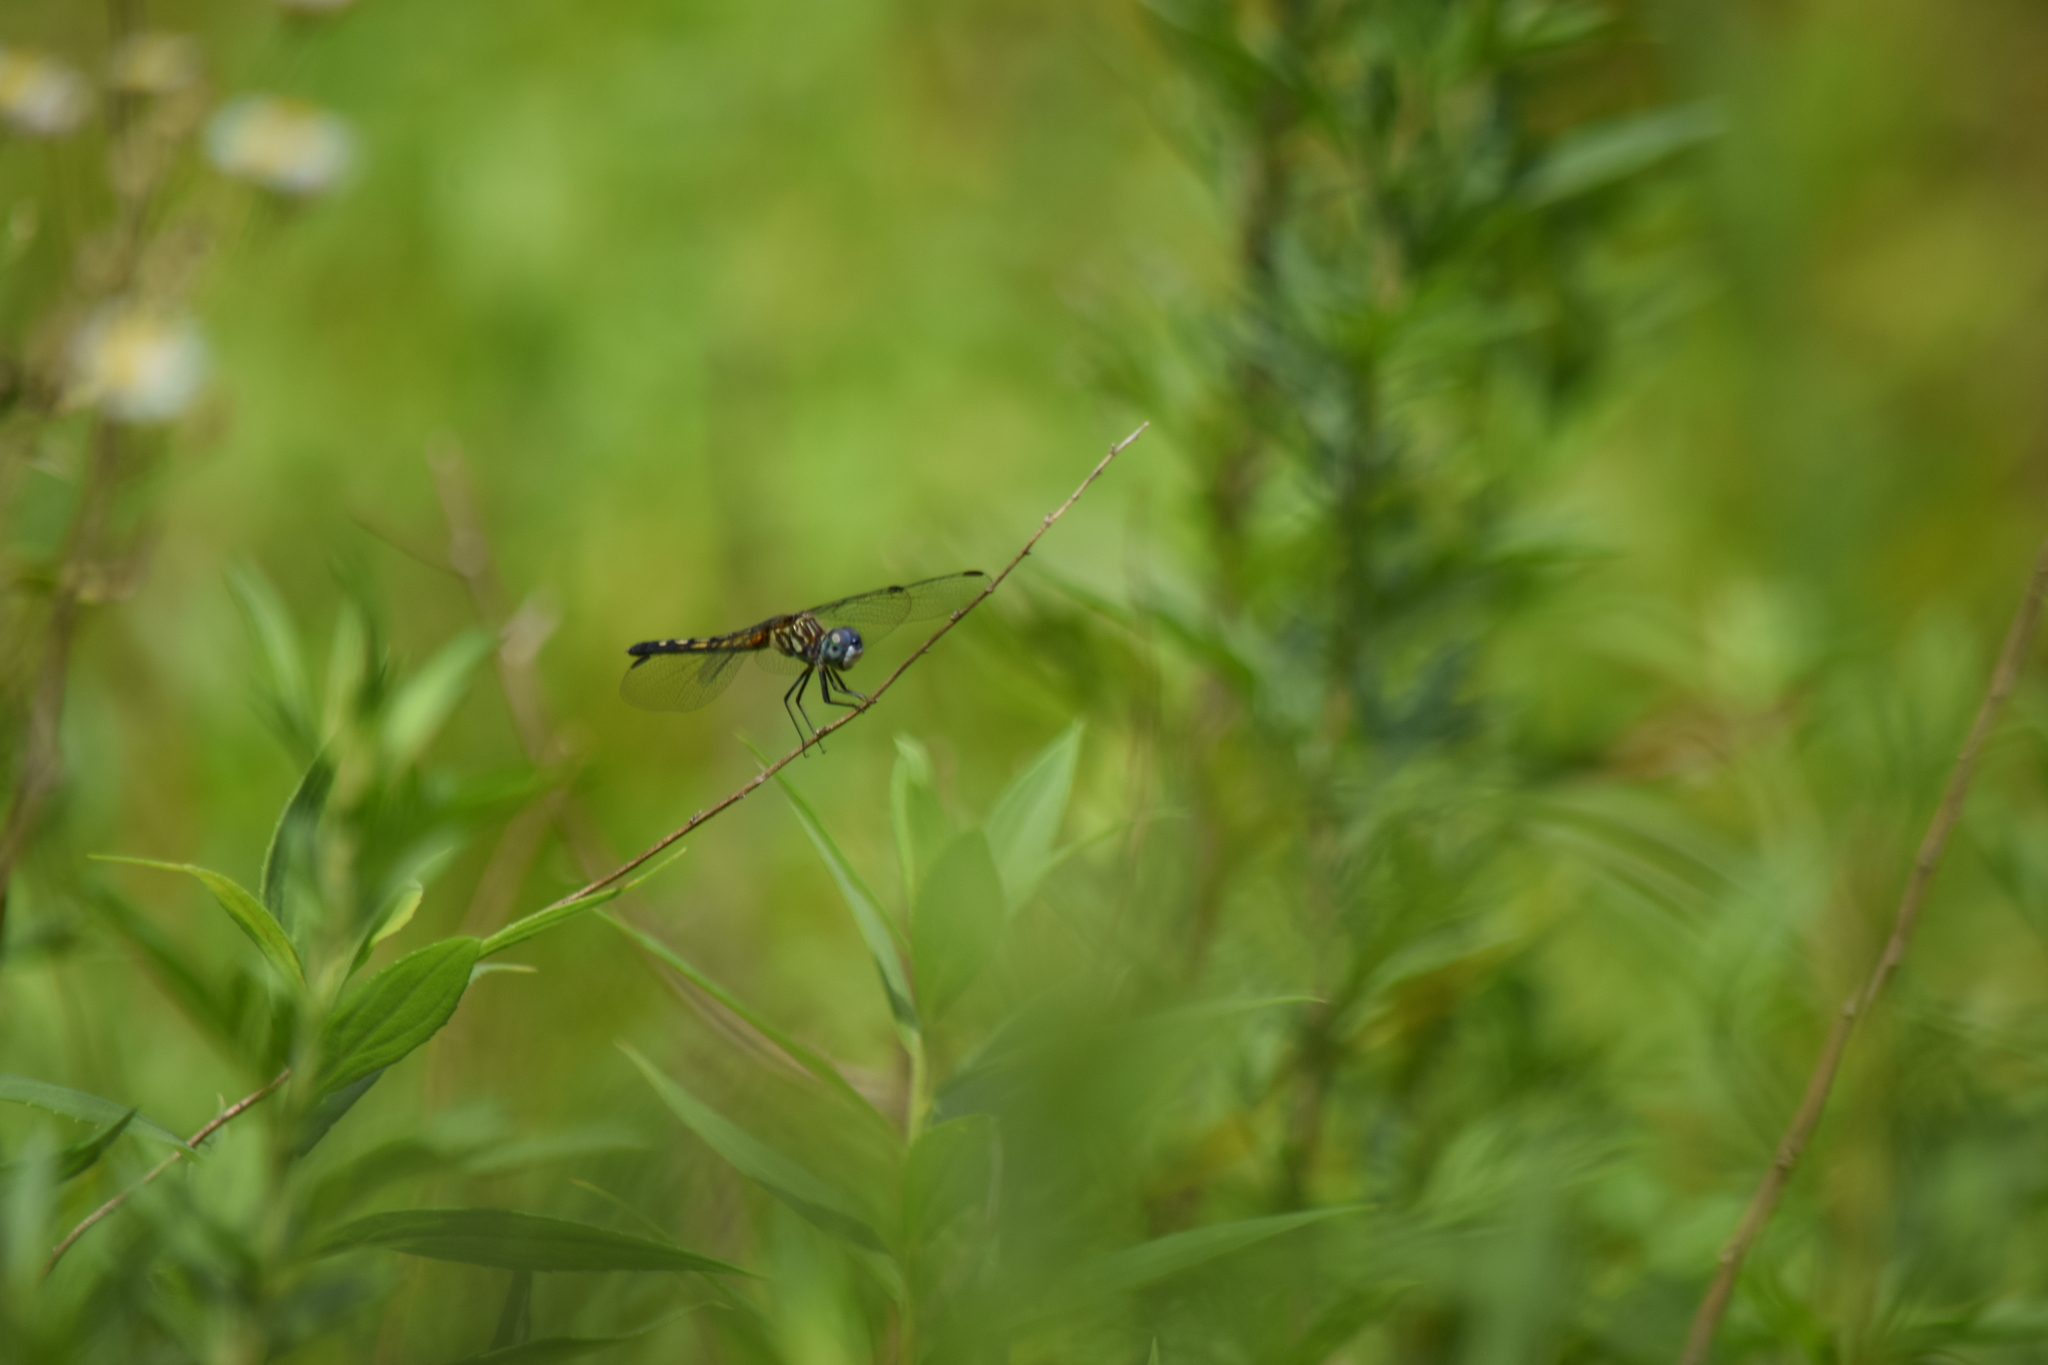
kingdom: Animalia
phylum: Arthropoda
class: Insecta
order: Odonata
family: Libellulidae
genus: Pachydiplax
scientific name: Pachydiplax longipennis
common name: Blue dasher
